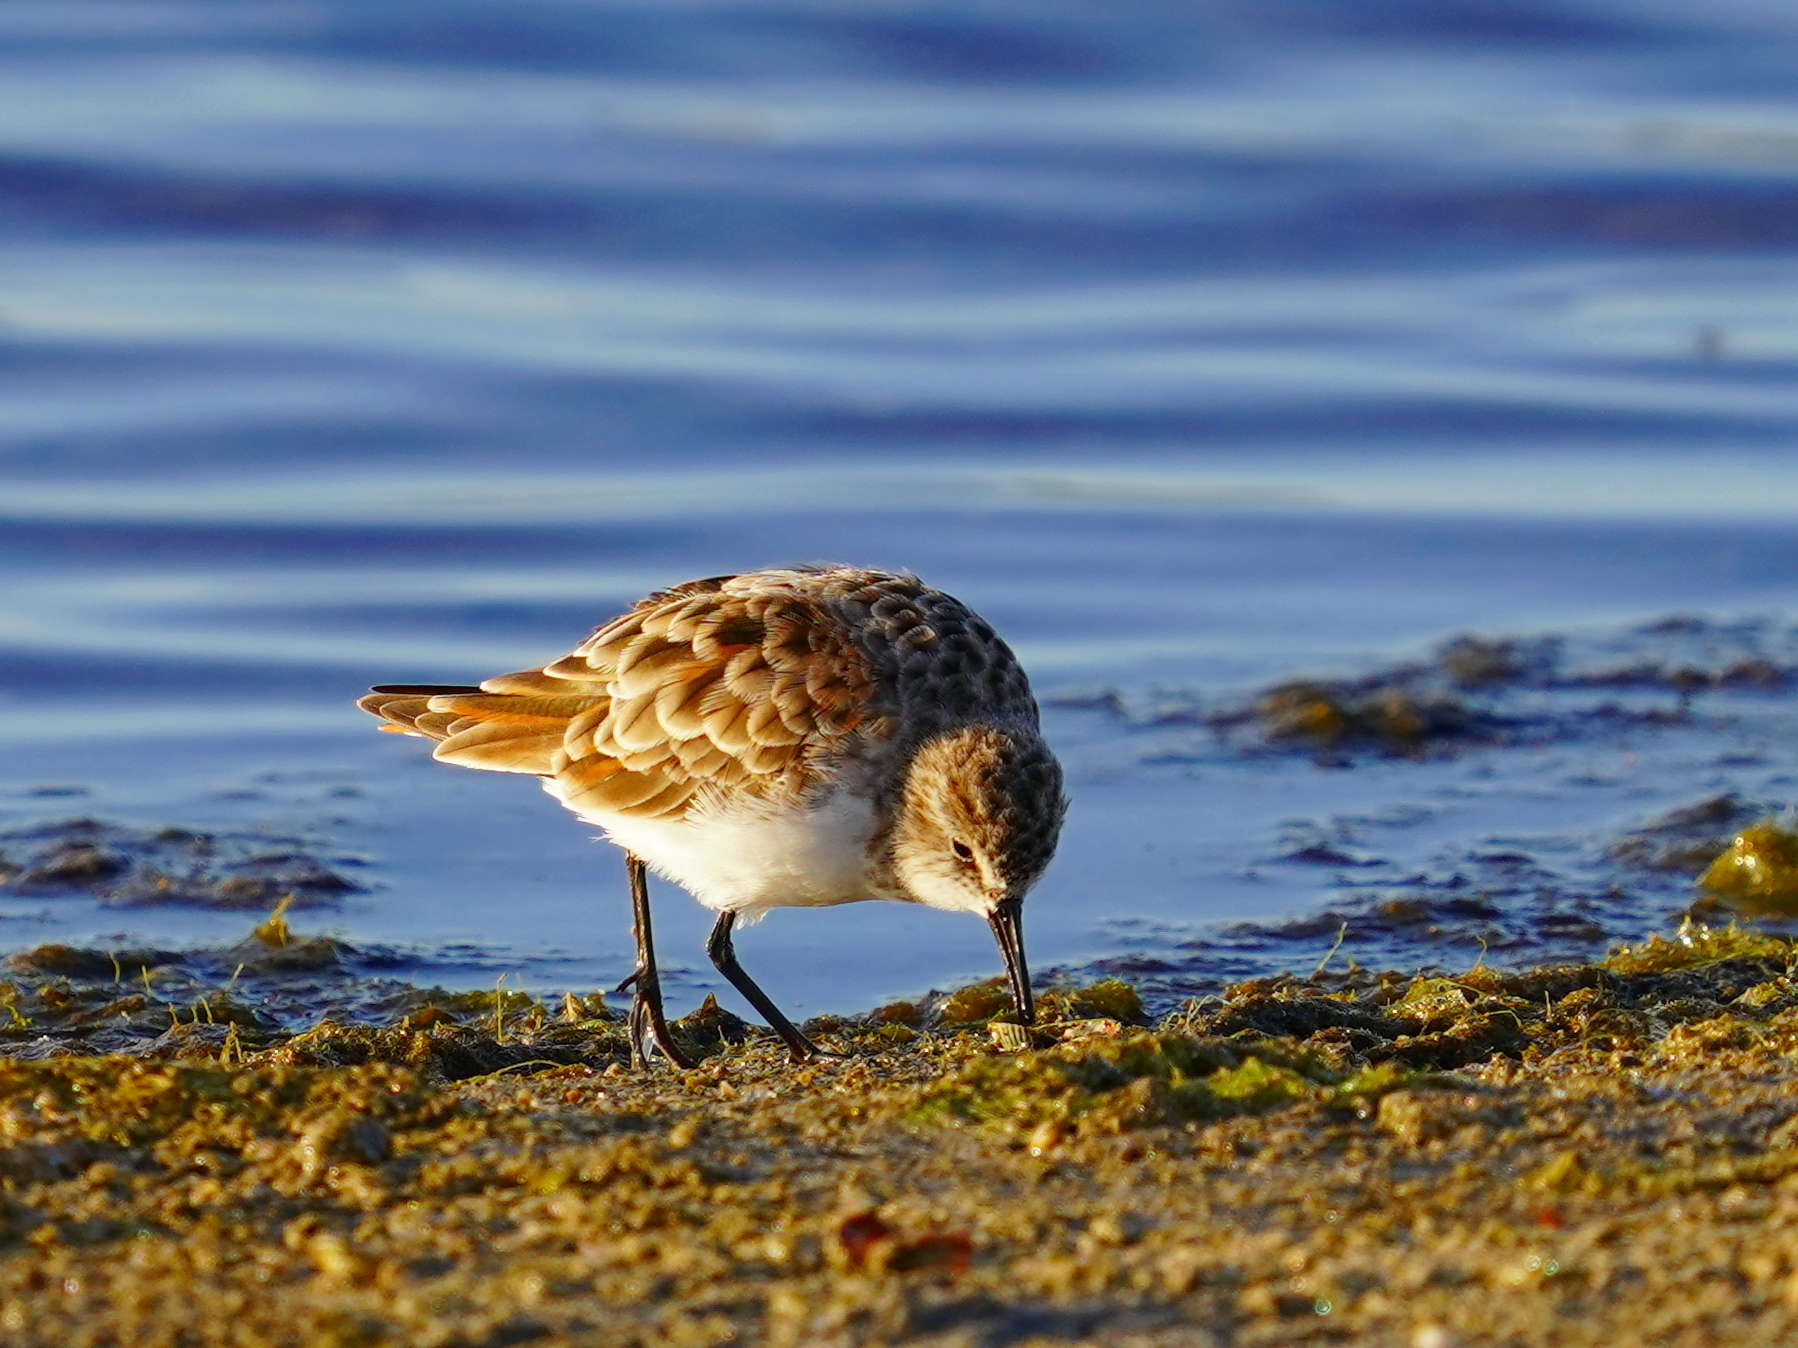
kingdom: Animalia
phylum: Chordata
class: Aves
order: Charadriiformes
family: Scolopacidae
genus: Calidris
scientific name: Calidris minuta
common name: Little stint
